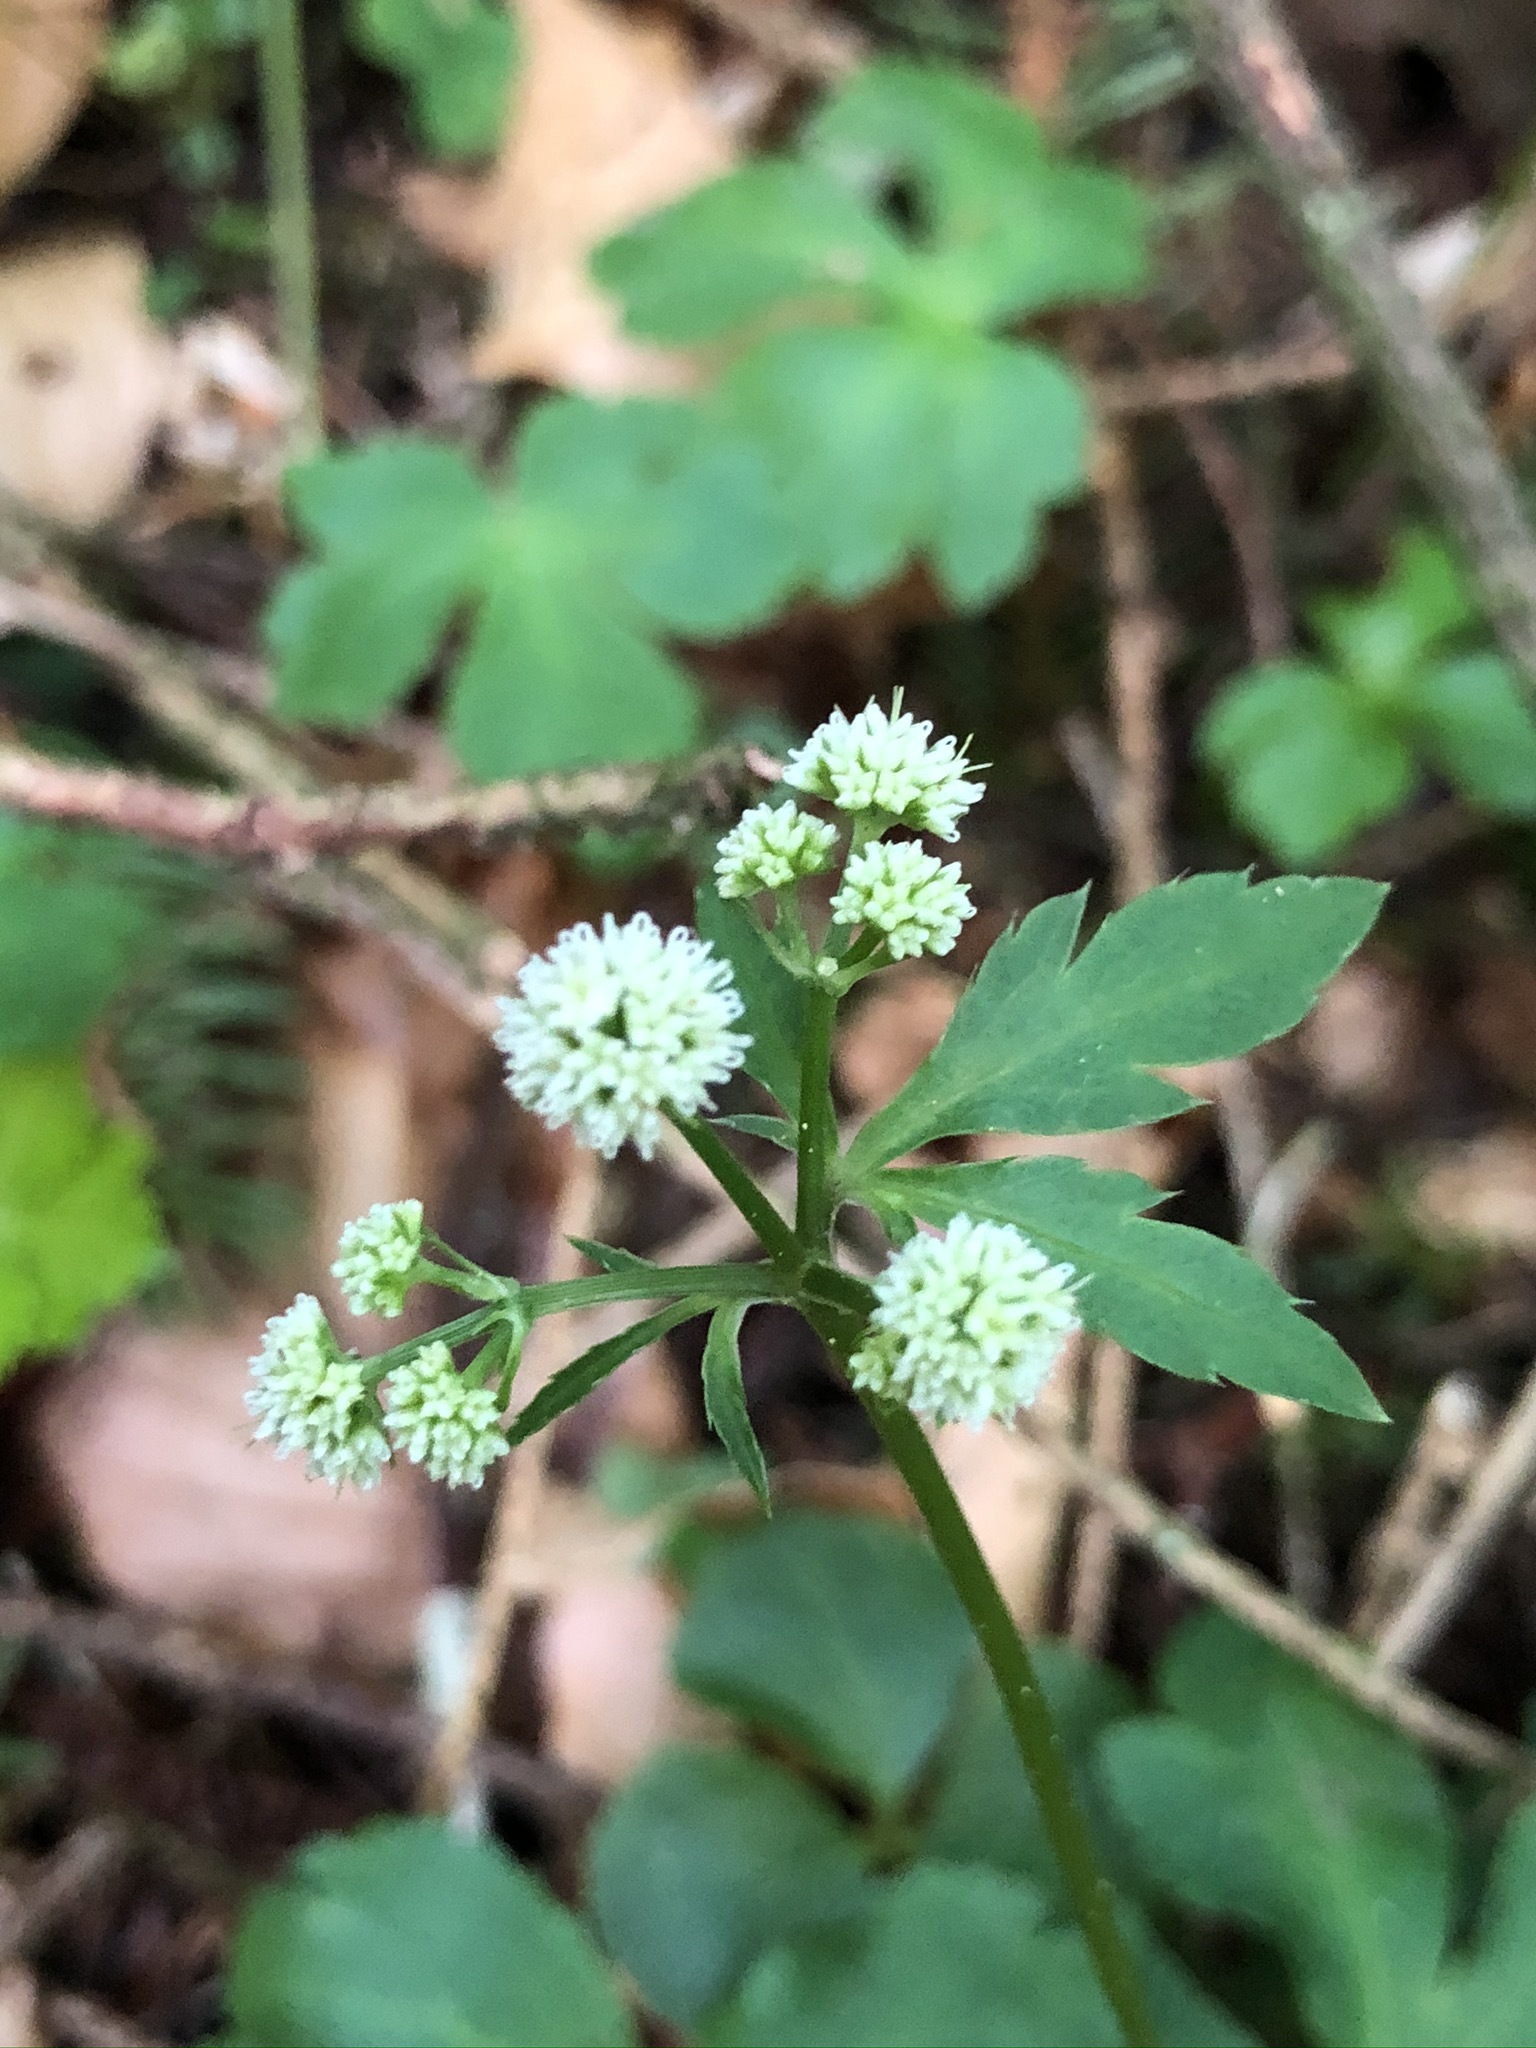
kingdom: Plantae
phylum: Tracheophyta
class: Magnoliopsida
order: Apiales
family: Apiaceae
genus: Sanicula
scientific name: Sanicula europaea
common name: Sanicle
